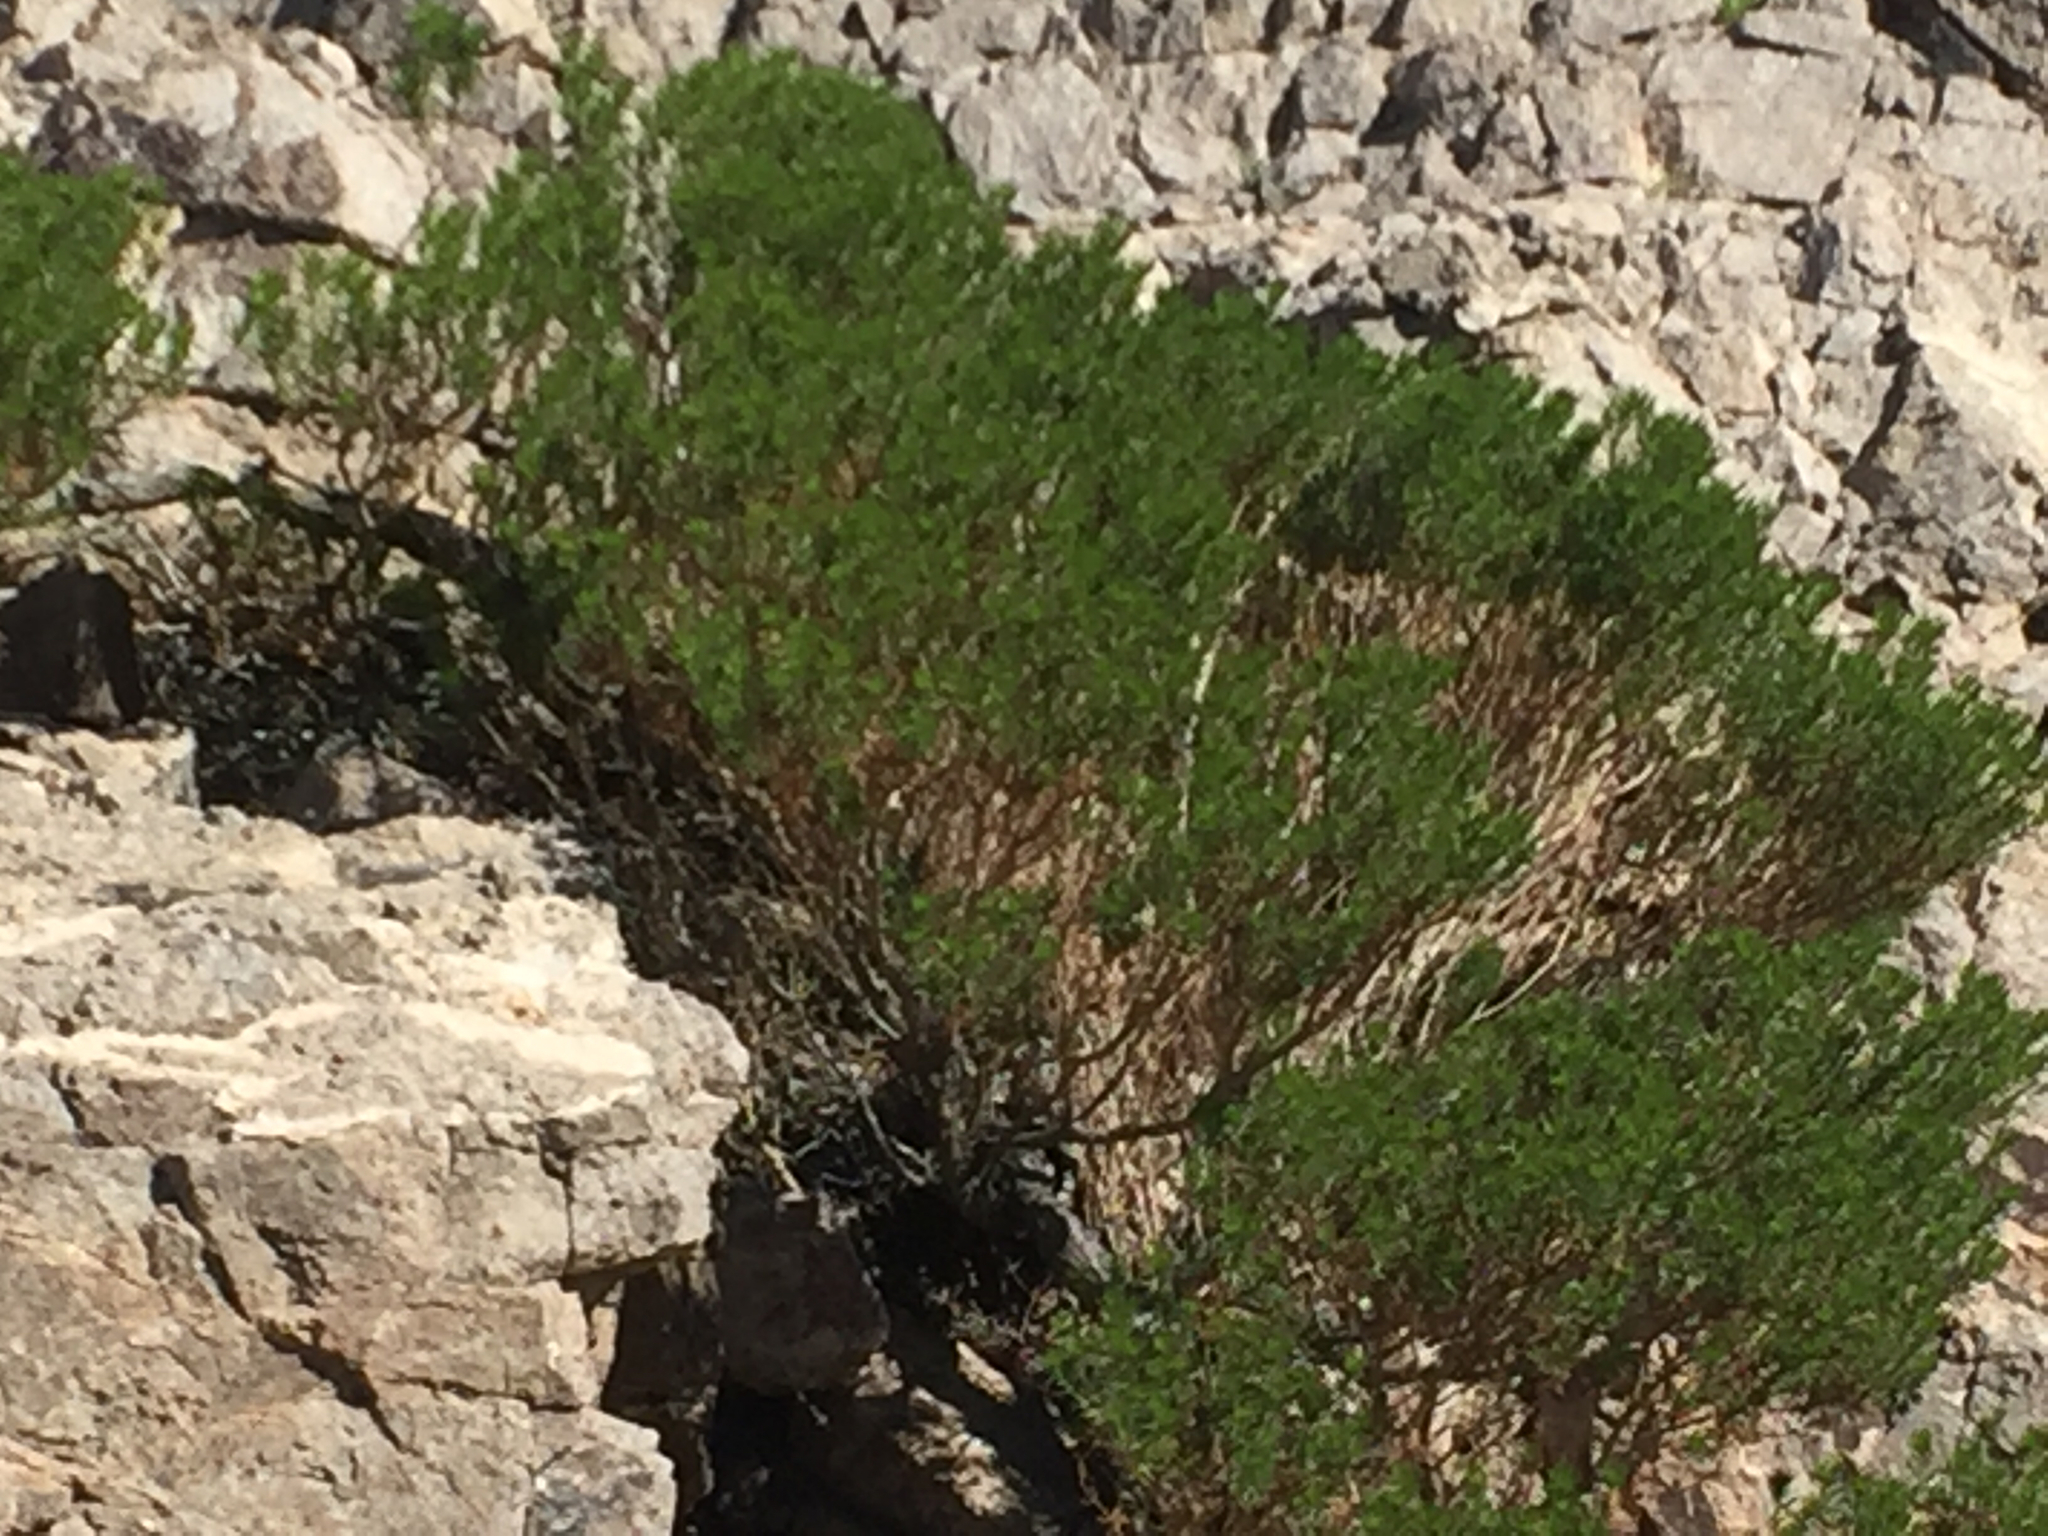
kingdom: Plantae
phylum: Tracheophyta
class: Magnoliopsida
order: Asterales
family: Asteraceae
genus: Peucephyllum
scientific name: Peucephyllum schottii
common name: Pygmy-cedar
